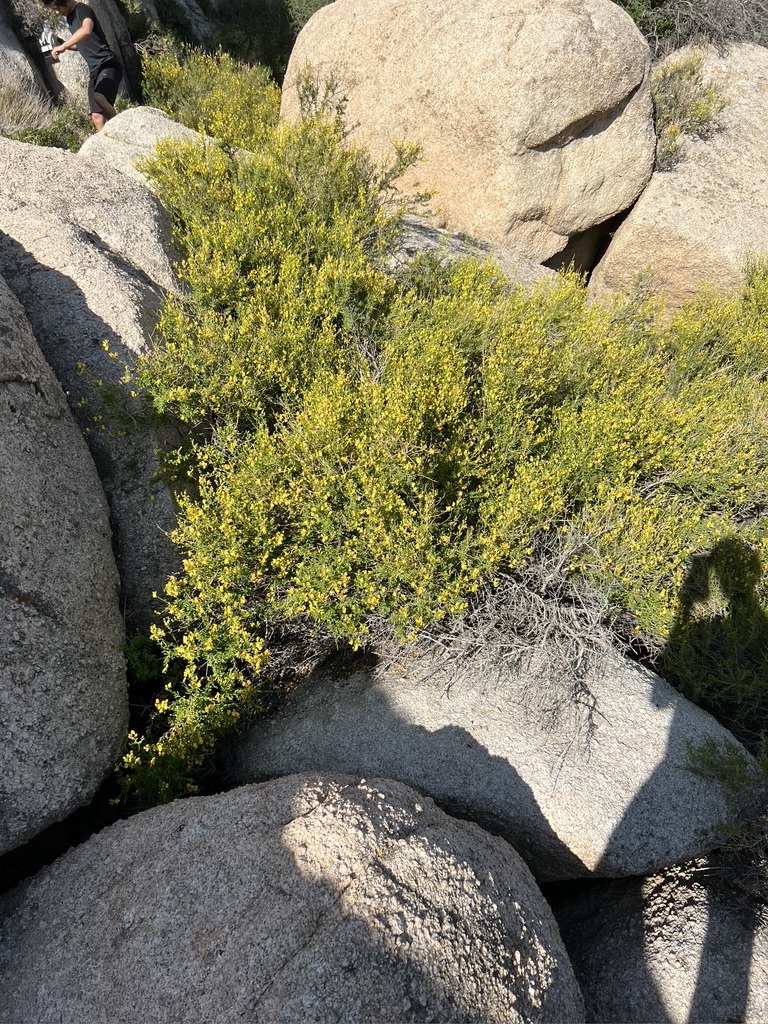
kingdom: Plantae
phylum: Tracheophyta
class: Magnoliopsida
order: Lamiales
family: Plantaginaceae
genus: Keckiella
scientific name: Keckiella antirrhinoides
